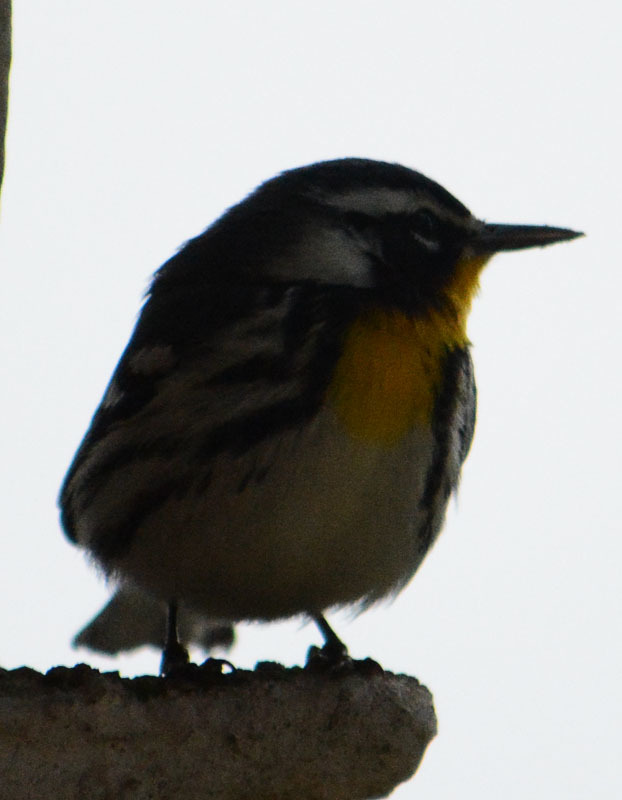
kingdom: Animalia
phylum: Chordata
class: Aves
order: Passeriformes
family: Parulidae
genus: Setophaga
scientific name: Setophaga dominica
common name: Yellow-throated warbler
